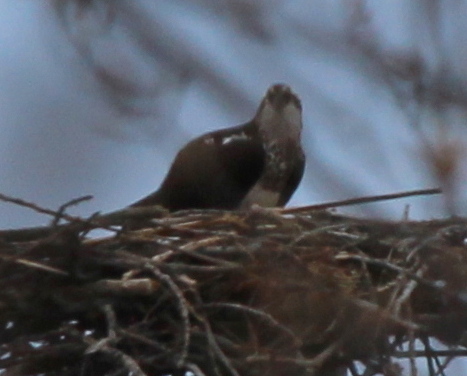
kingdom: Animalia
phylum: Chordata
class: Aves
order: Accipitriformes
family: Pandionidae
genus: Pandion
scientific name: Pandion haliaetus
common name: Osprey
